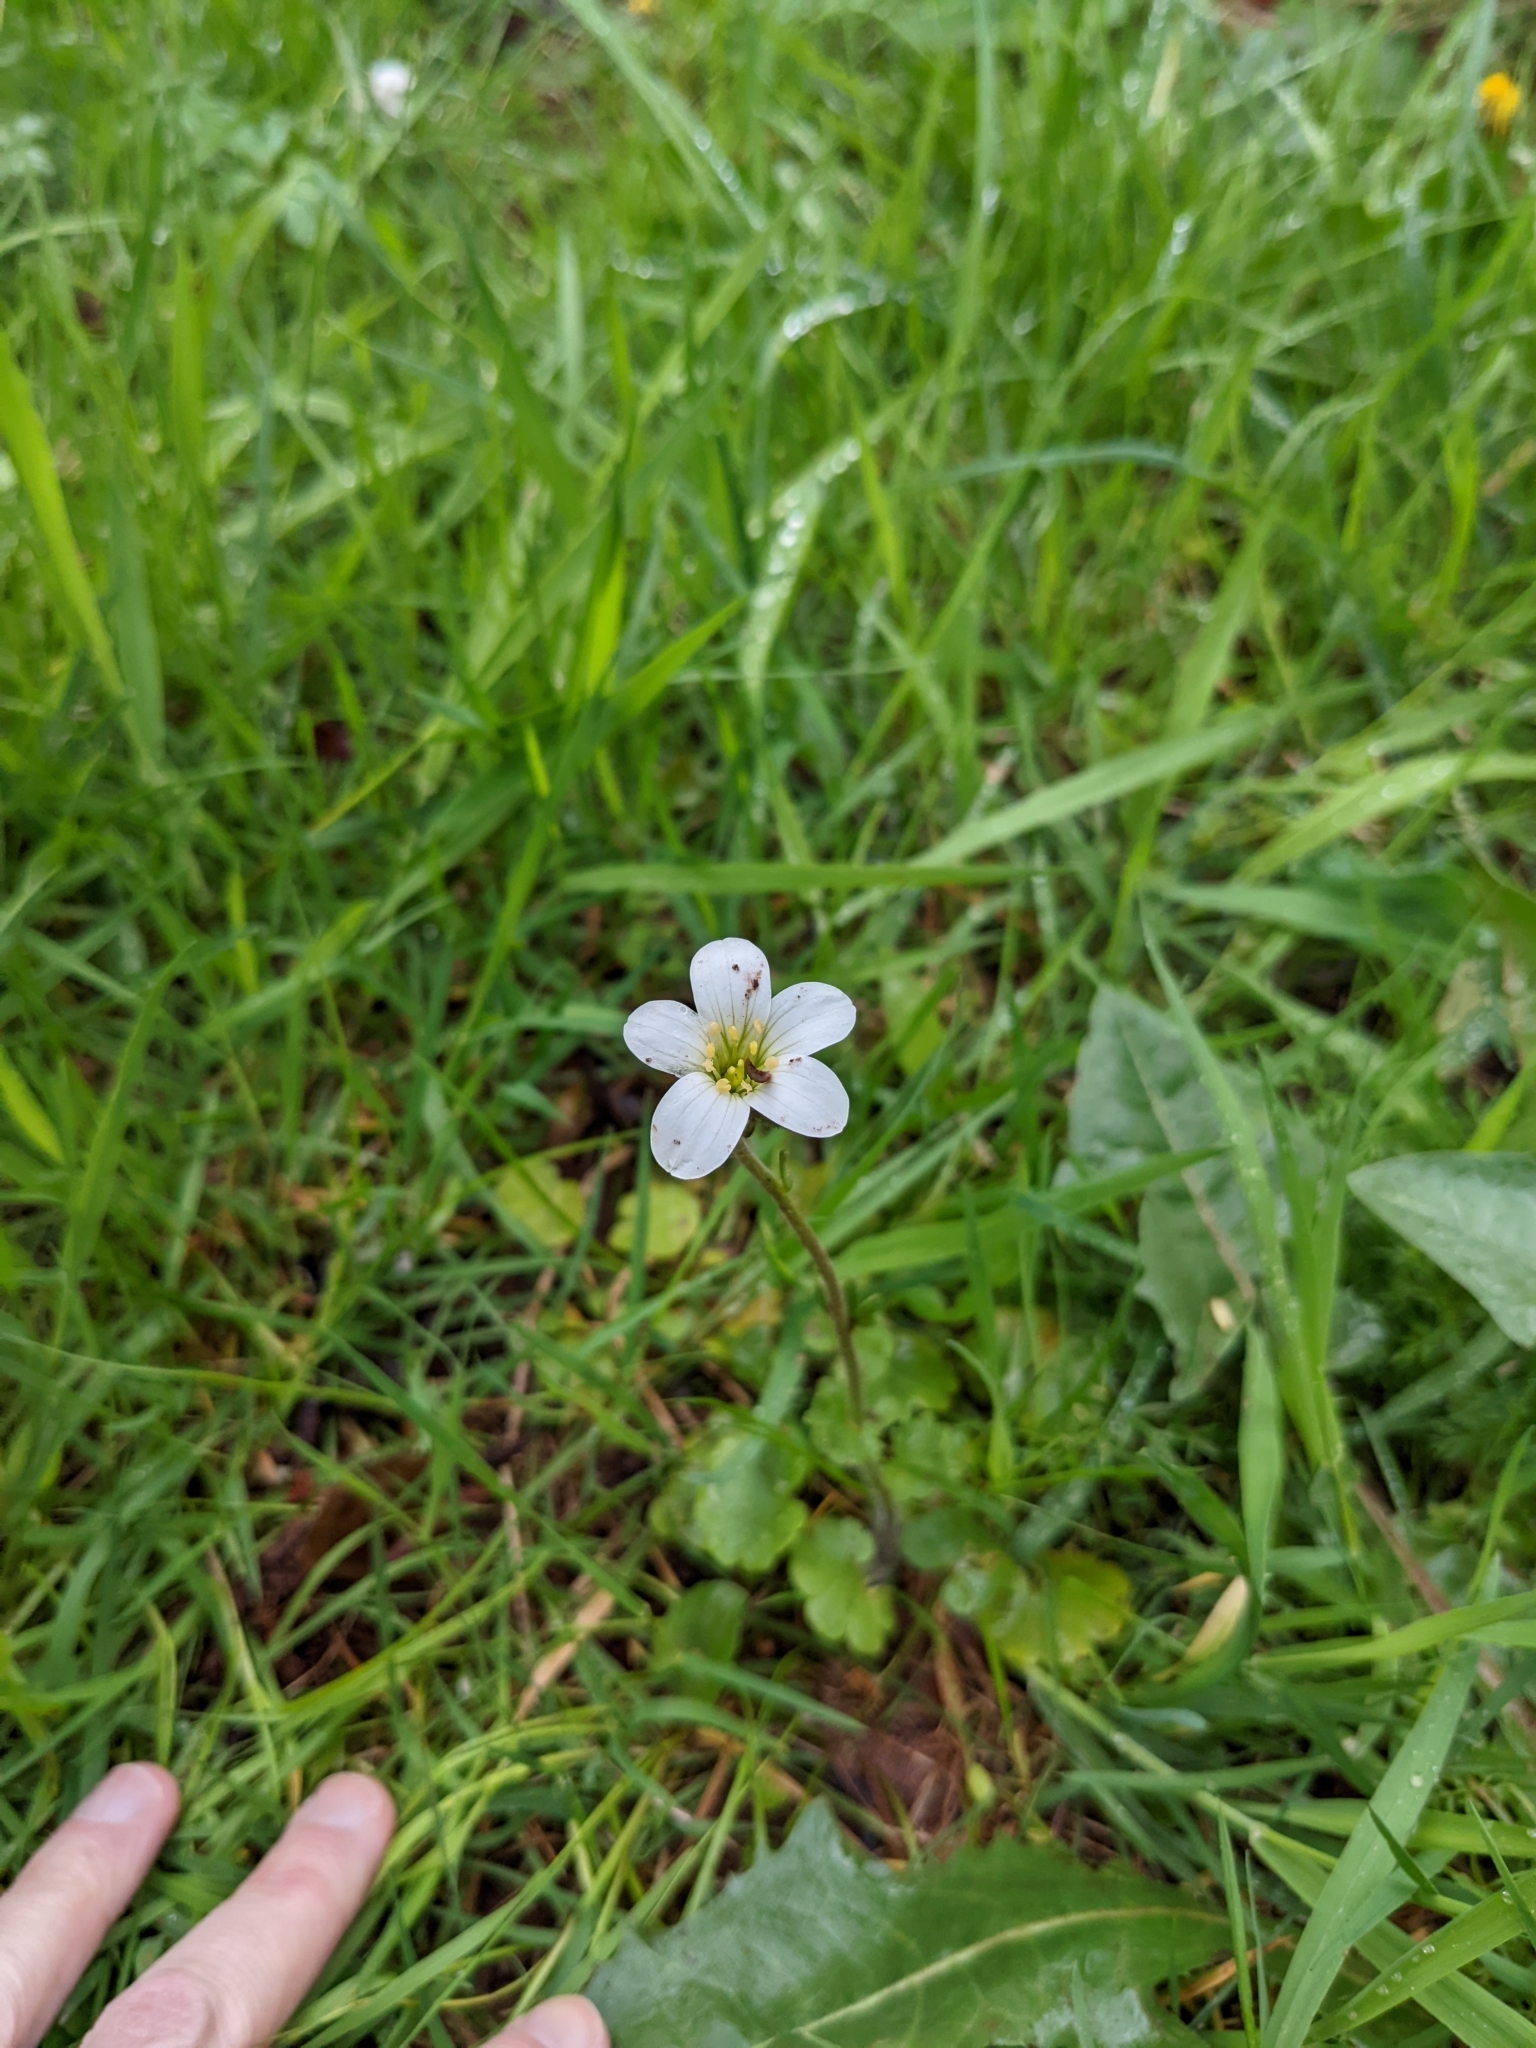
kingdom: Plantae
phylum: Tracheophyta
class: Magnoliopsida
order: Saxifragales
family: Saxifragaceae
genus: Saxifraga
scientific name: Saxifraga granulata
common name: Meadow saxifrage
